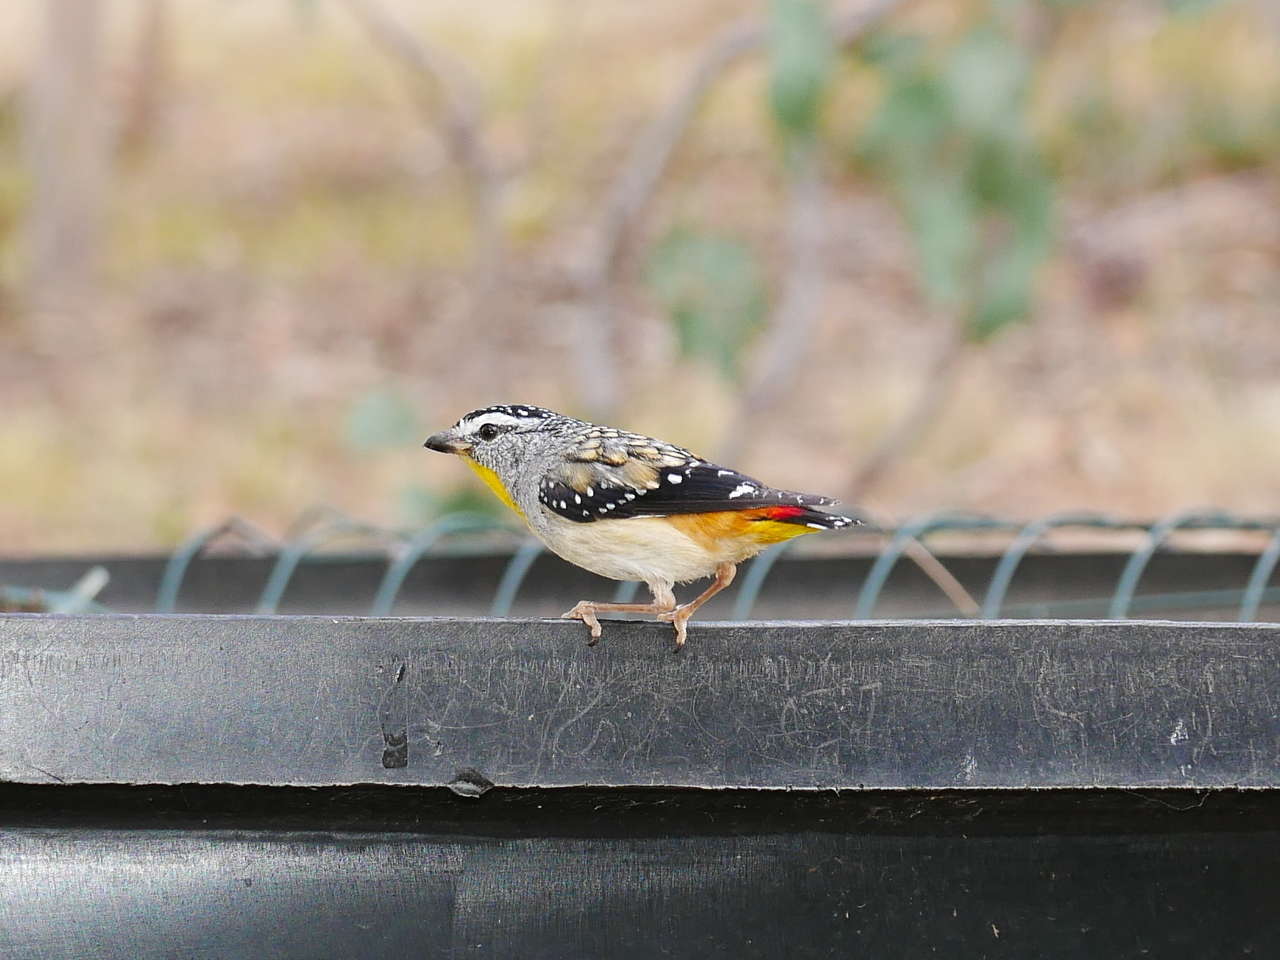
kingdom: Animalia
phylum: Chordata
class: Aves
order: Passeriformes
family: Pardalotidae
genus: Pardalotus
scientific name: Pardalotus punctatus
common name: Spotted pardalote
